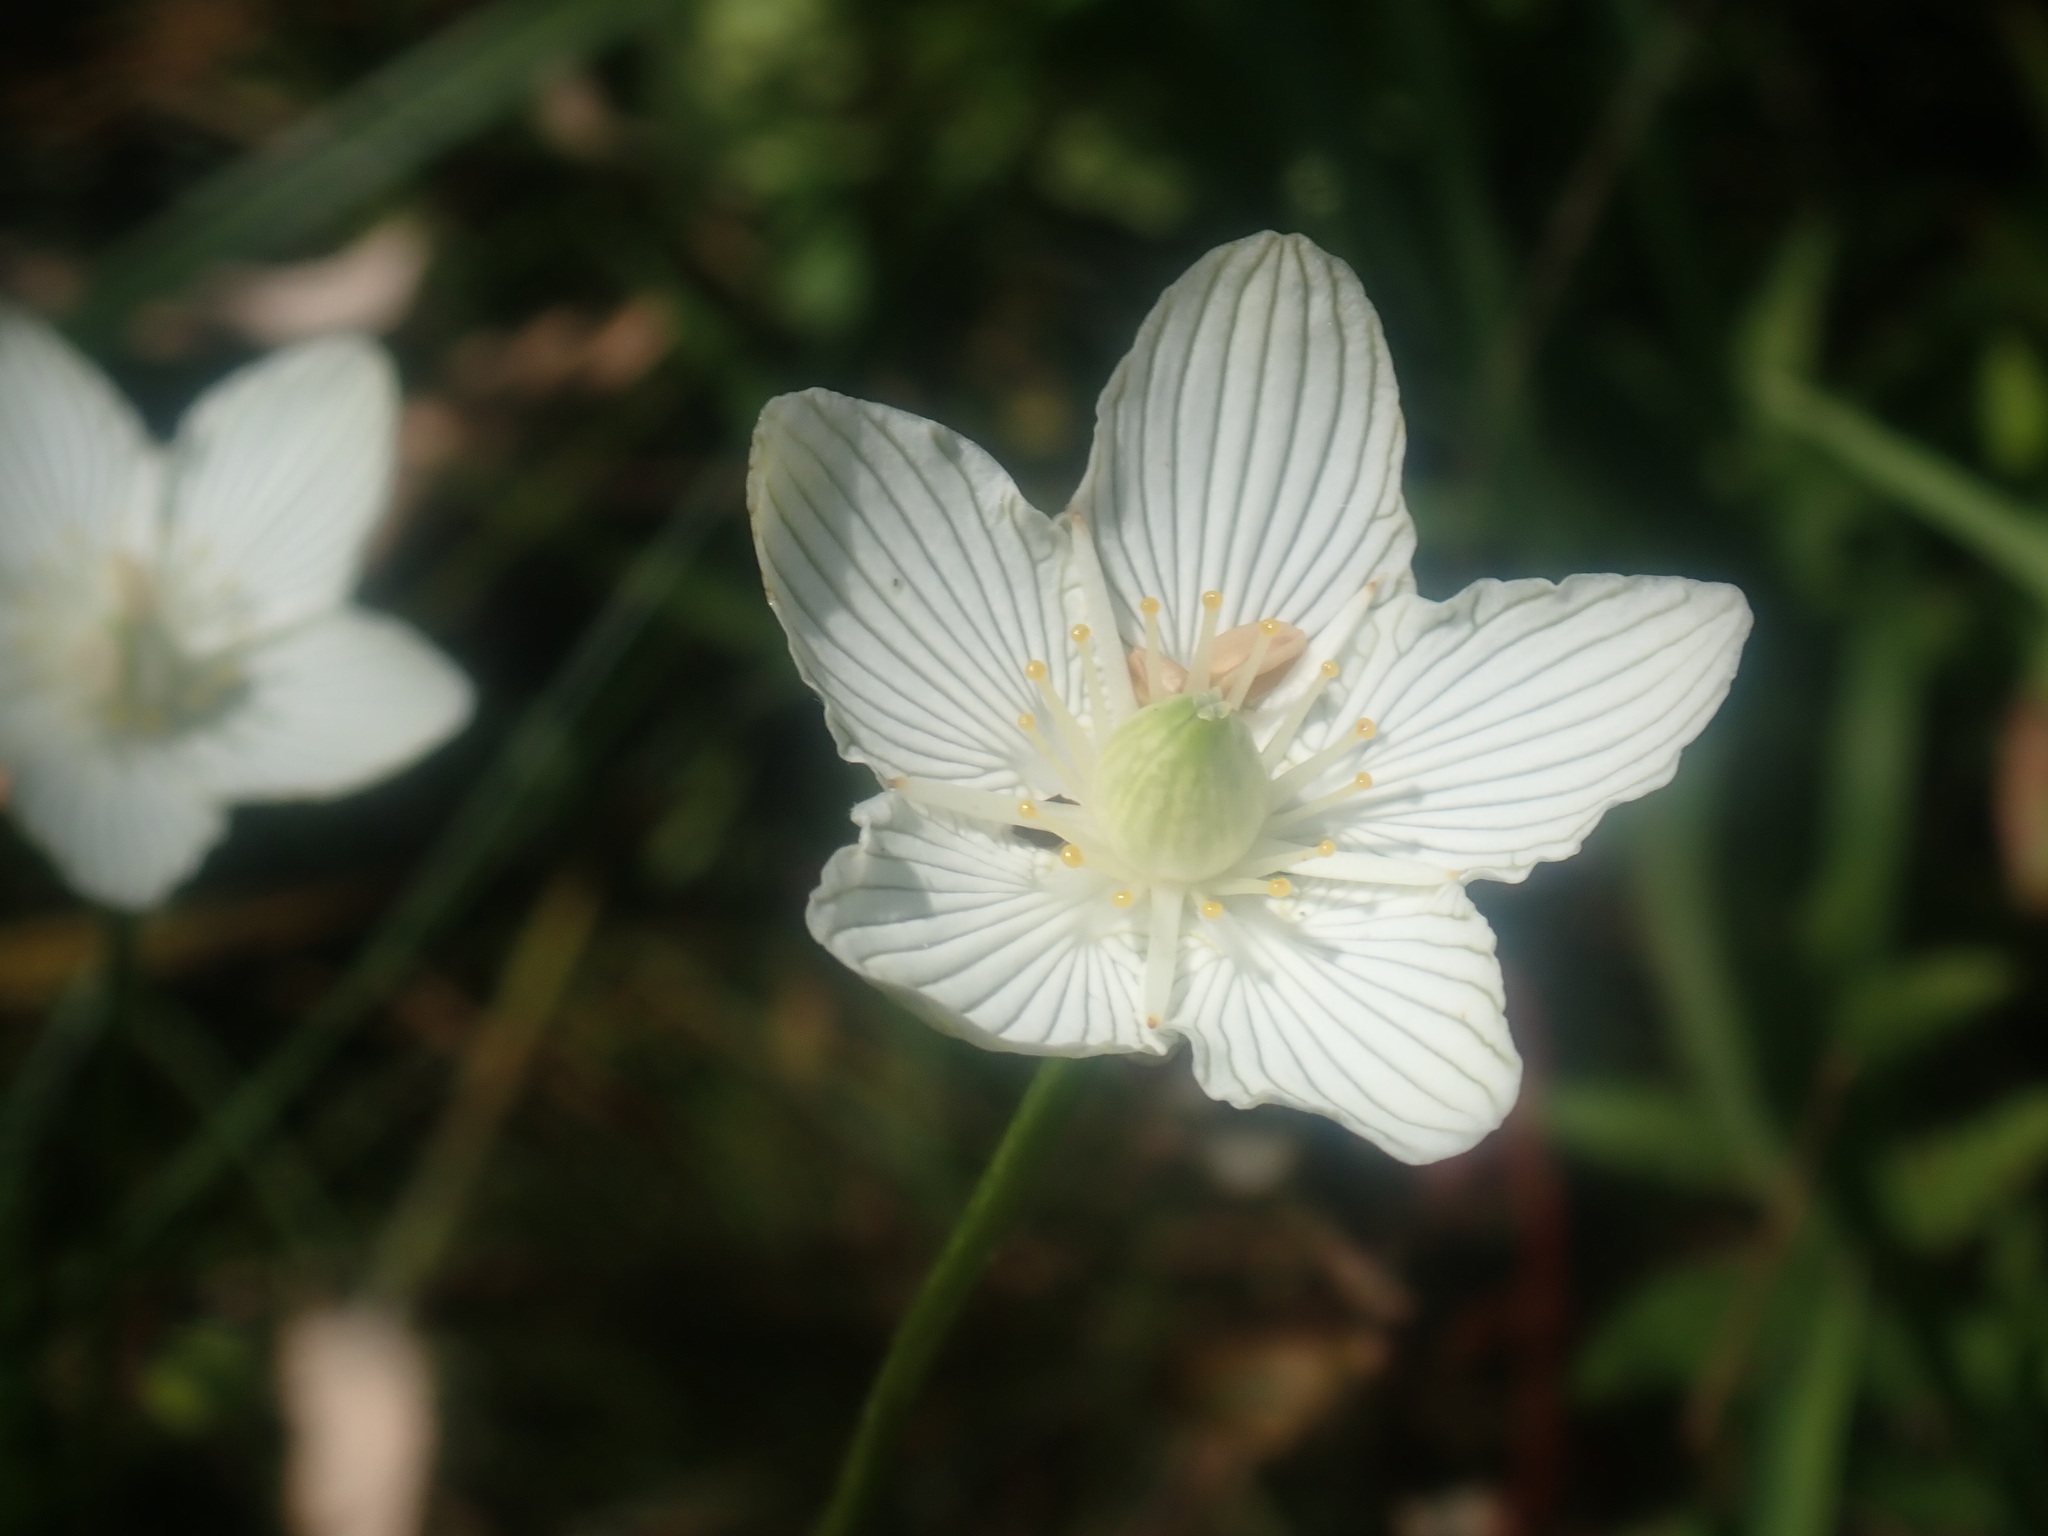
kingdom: Plantae
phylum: Tracheophyta
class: Magnoliopsida
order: Celastrales
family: Parnassiaceae
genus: Parnassia
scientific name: Parnassia glauca
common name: American grass-of-parnassus
